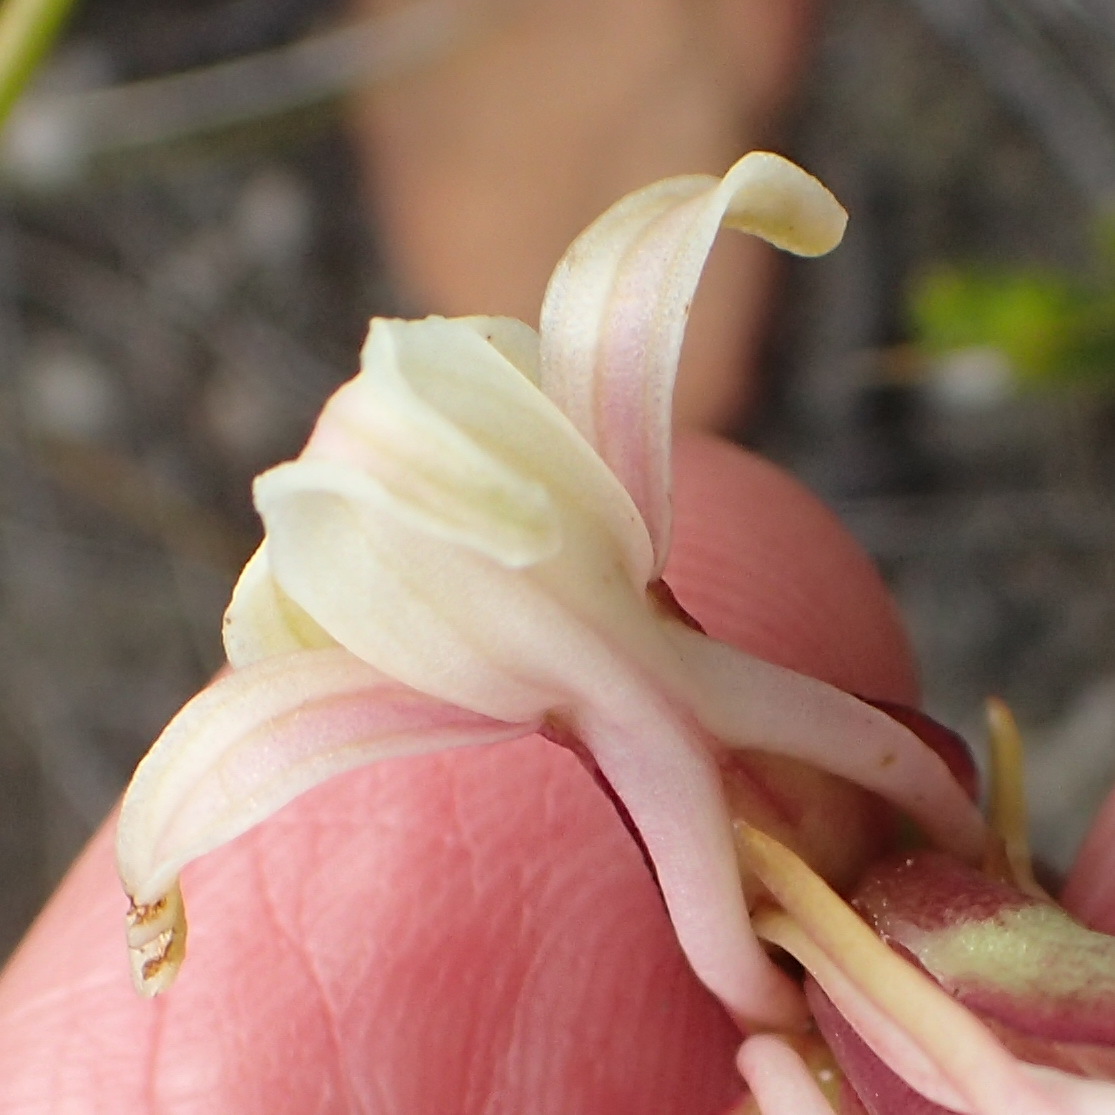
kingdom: Plantae
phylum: Tracheophyta
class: Liliopsida
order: Asparagales
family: Orchidaceae
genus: Satyrium
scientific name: Satyrium stenopetalum
